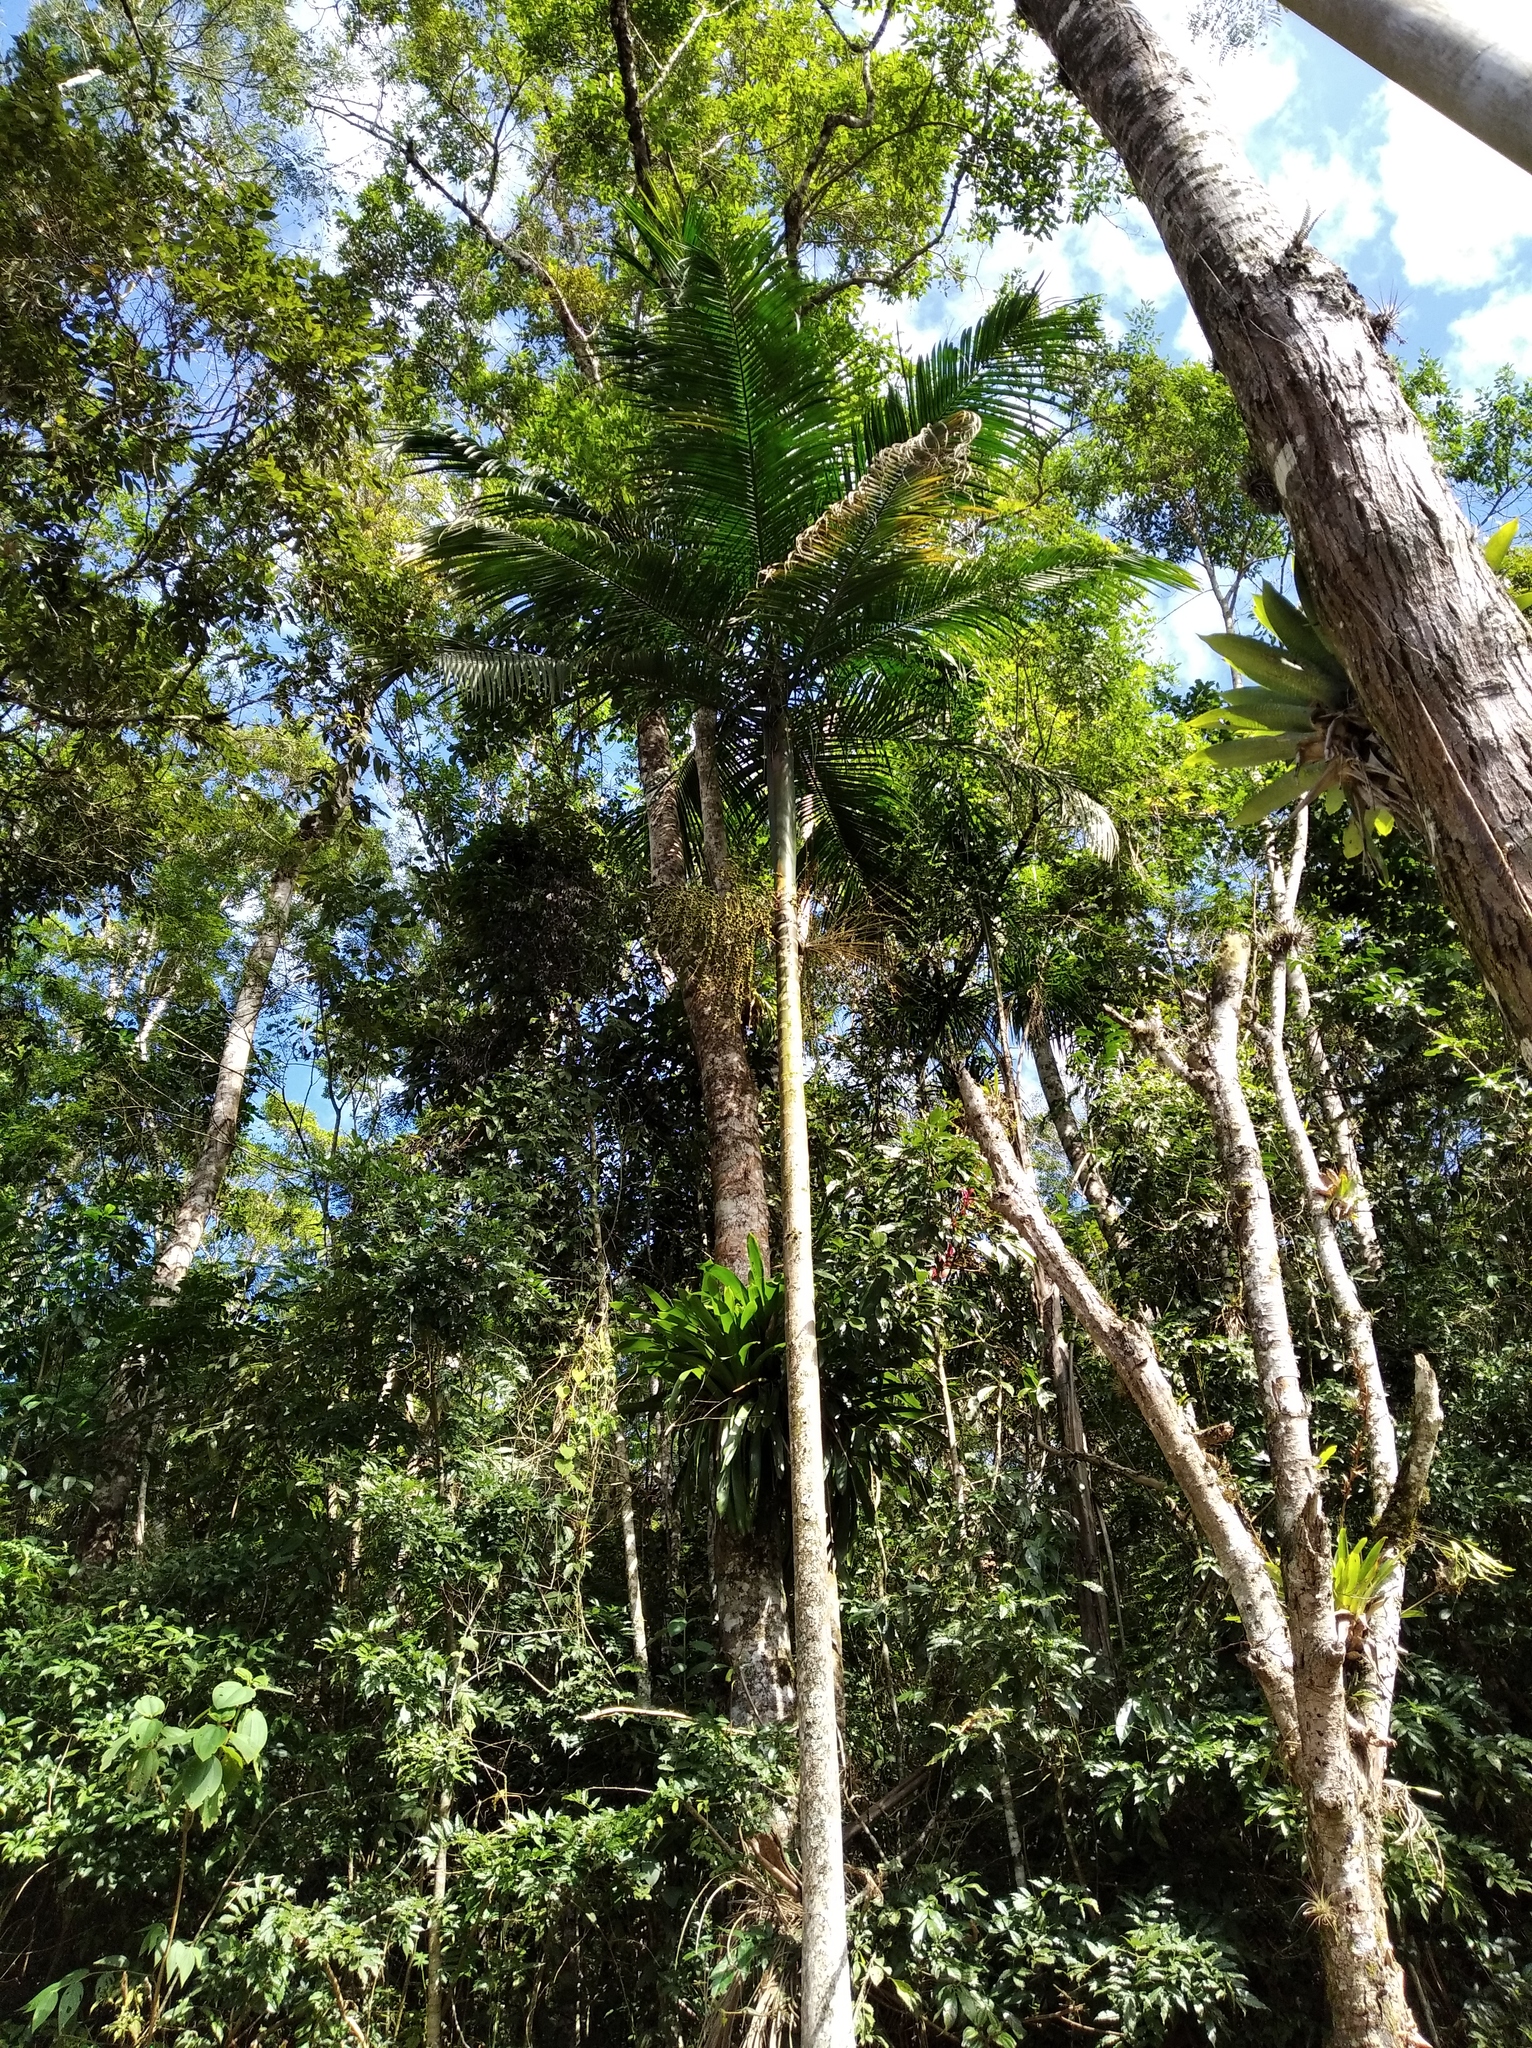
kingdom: Plantae
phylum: Tracheophyta
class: Liliopsida
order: Arecales
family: Arecaceae
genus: Euterpe
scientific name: Euterpe edulis
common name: Assai palm
